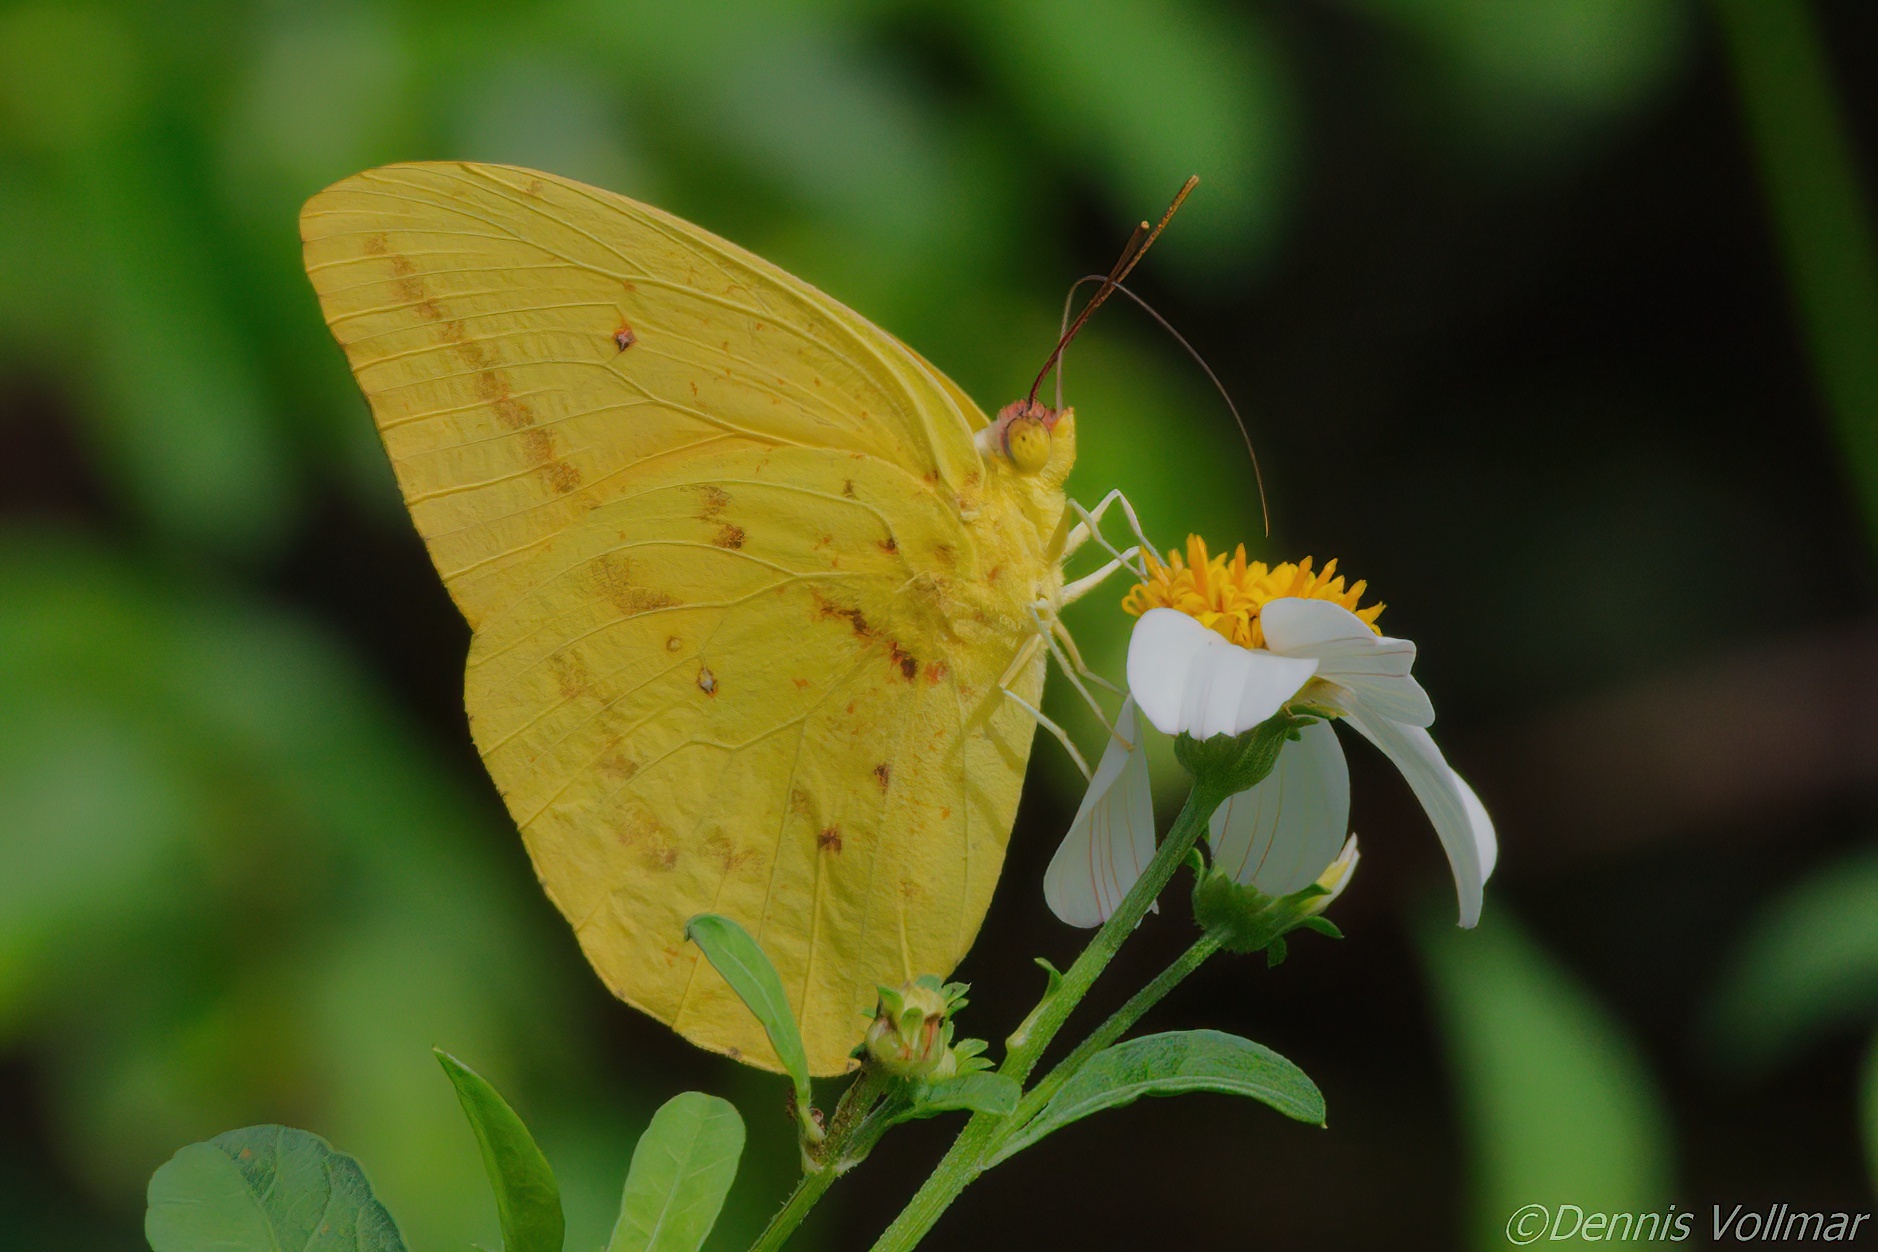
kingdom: Animalia
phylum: Arthropoda
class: Insecta
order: Lepidoptera
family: Pieridae
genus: Phoebis
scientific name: Phoebis agarithe
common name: Large orange sulphur
